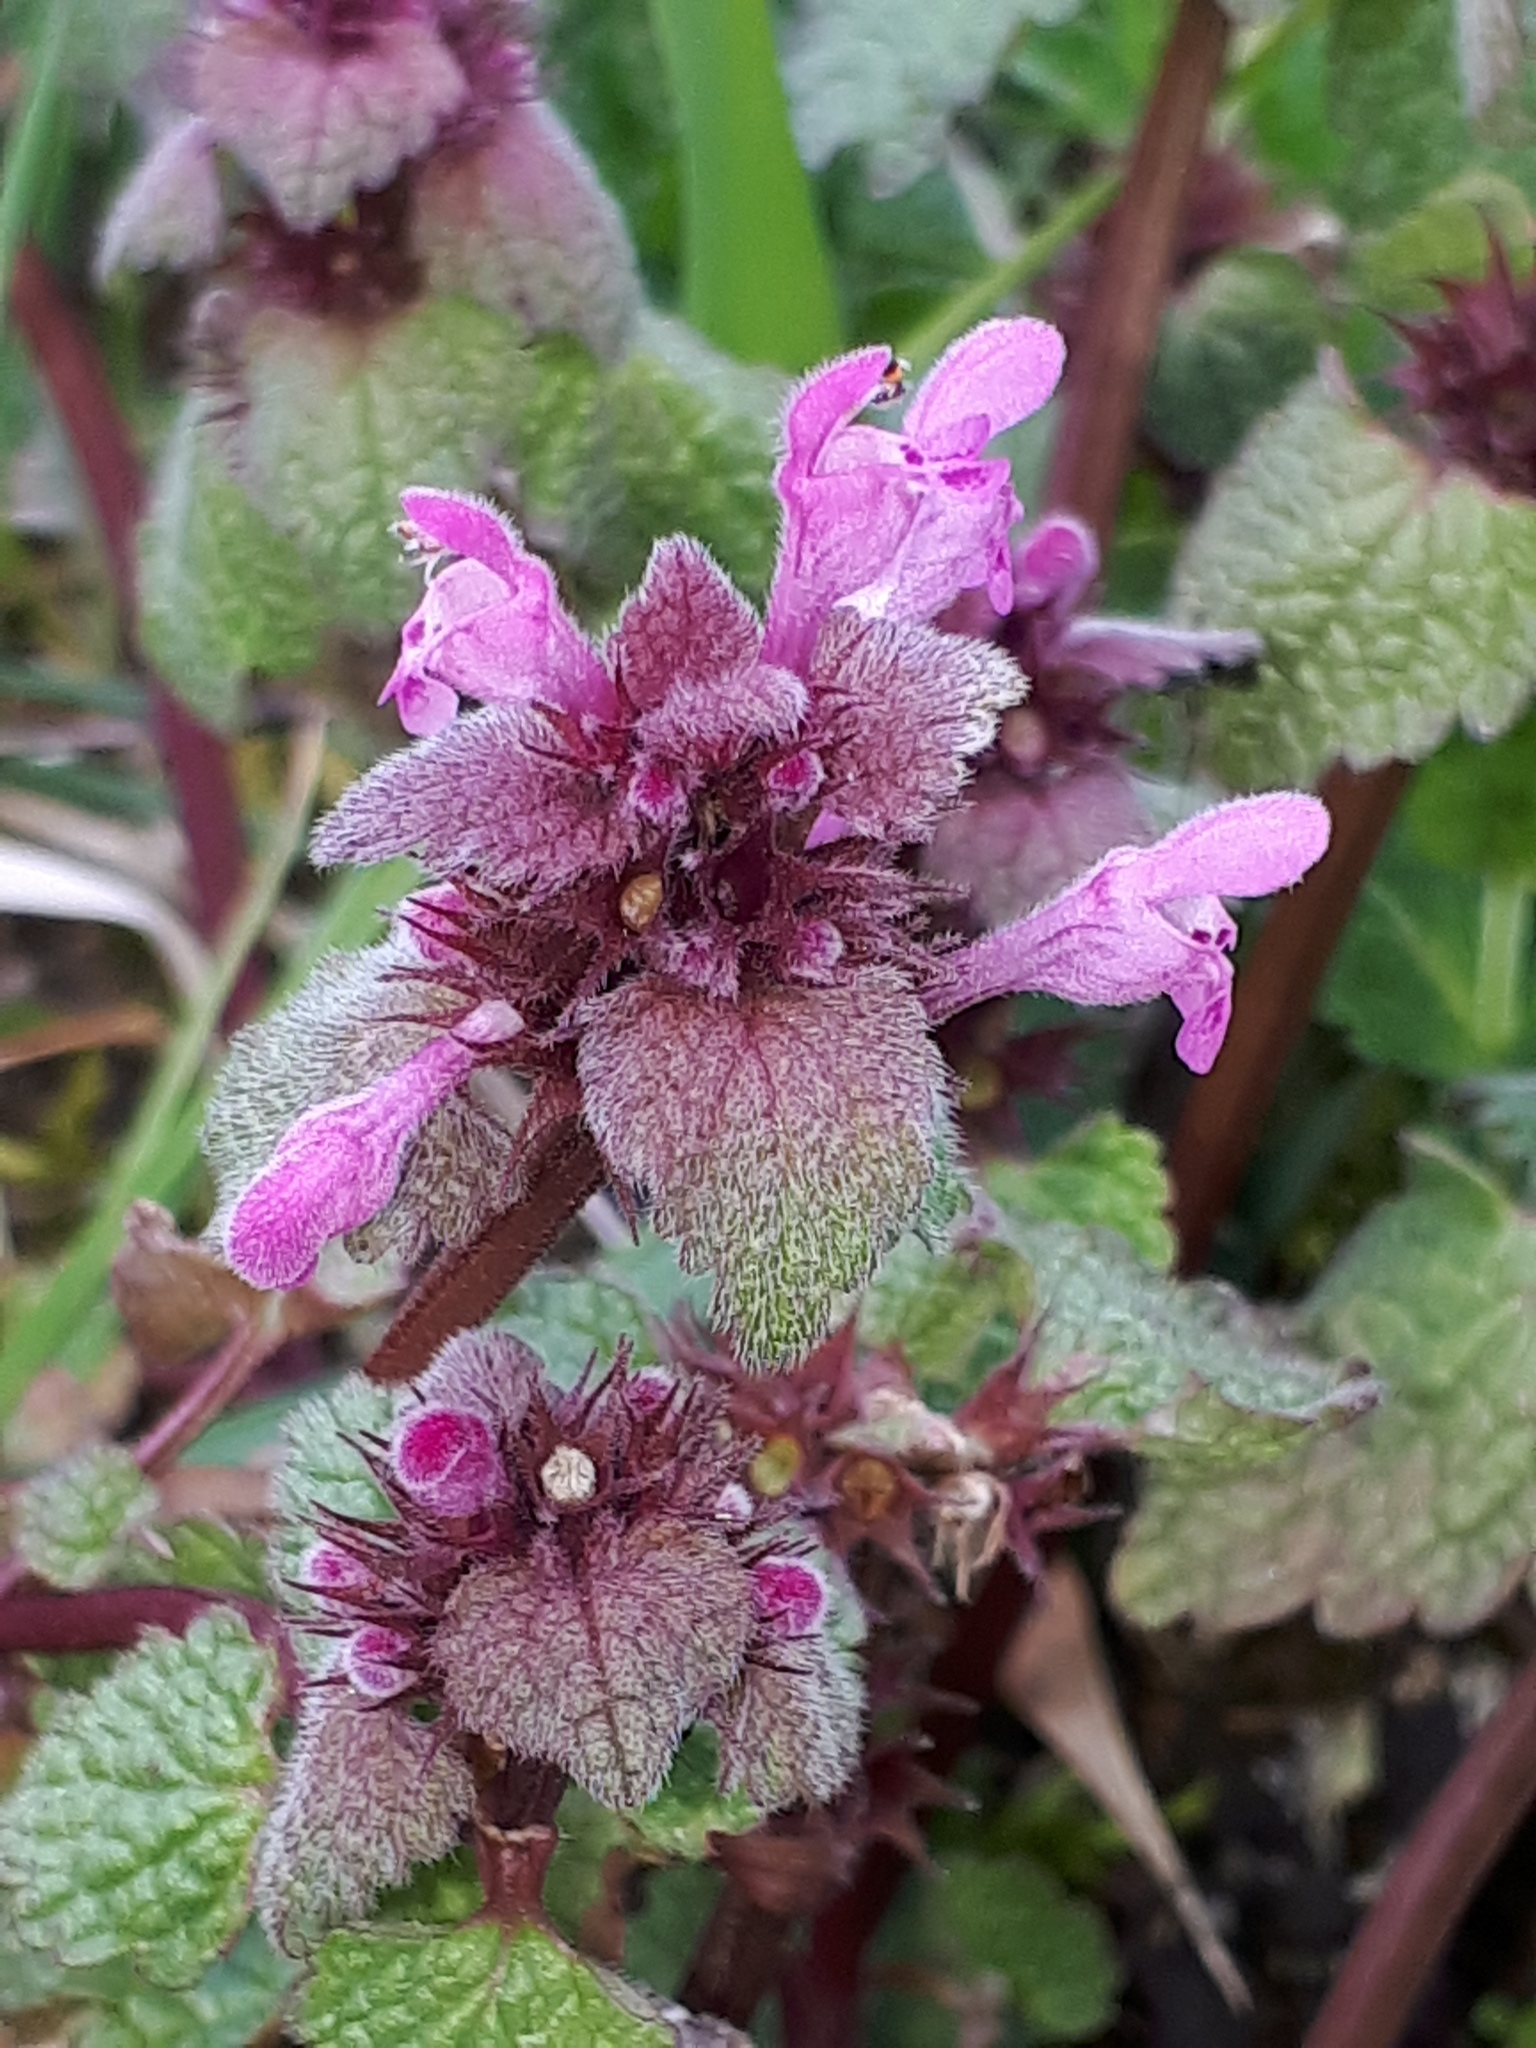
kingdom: Plantae
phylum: Tracheophyta
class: Magnoliopsida
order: Lamiales
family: Lamiaceae
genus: Lamium
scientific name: Lamium purpureum
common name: Red dead-nettle
